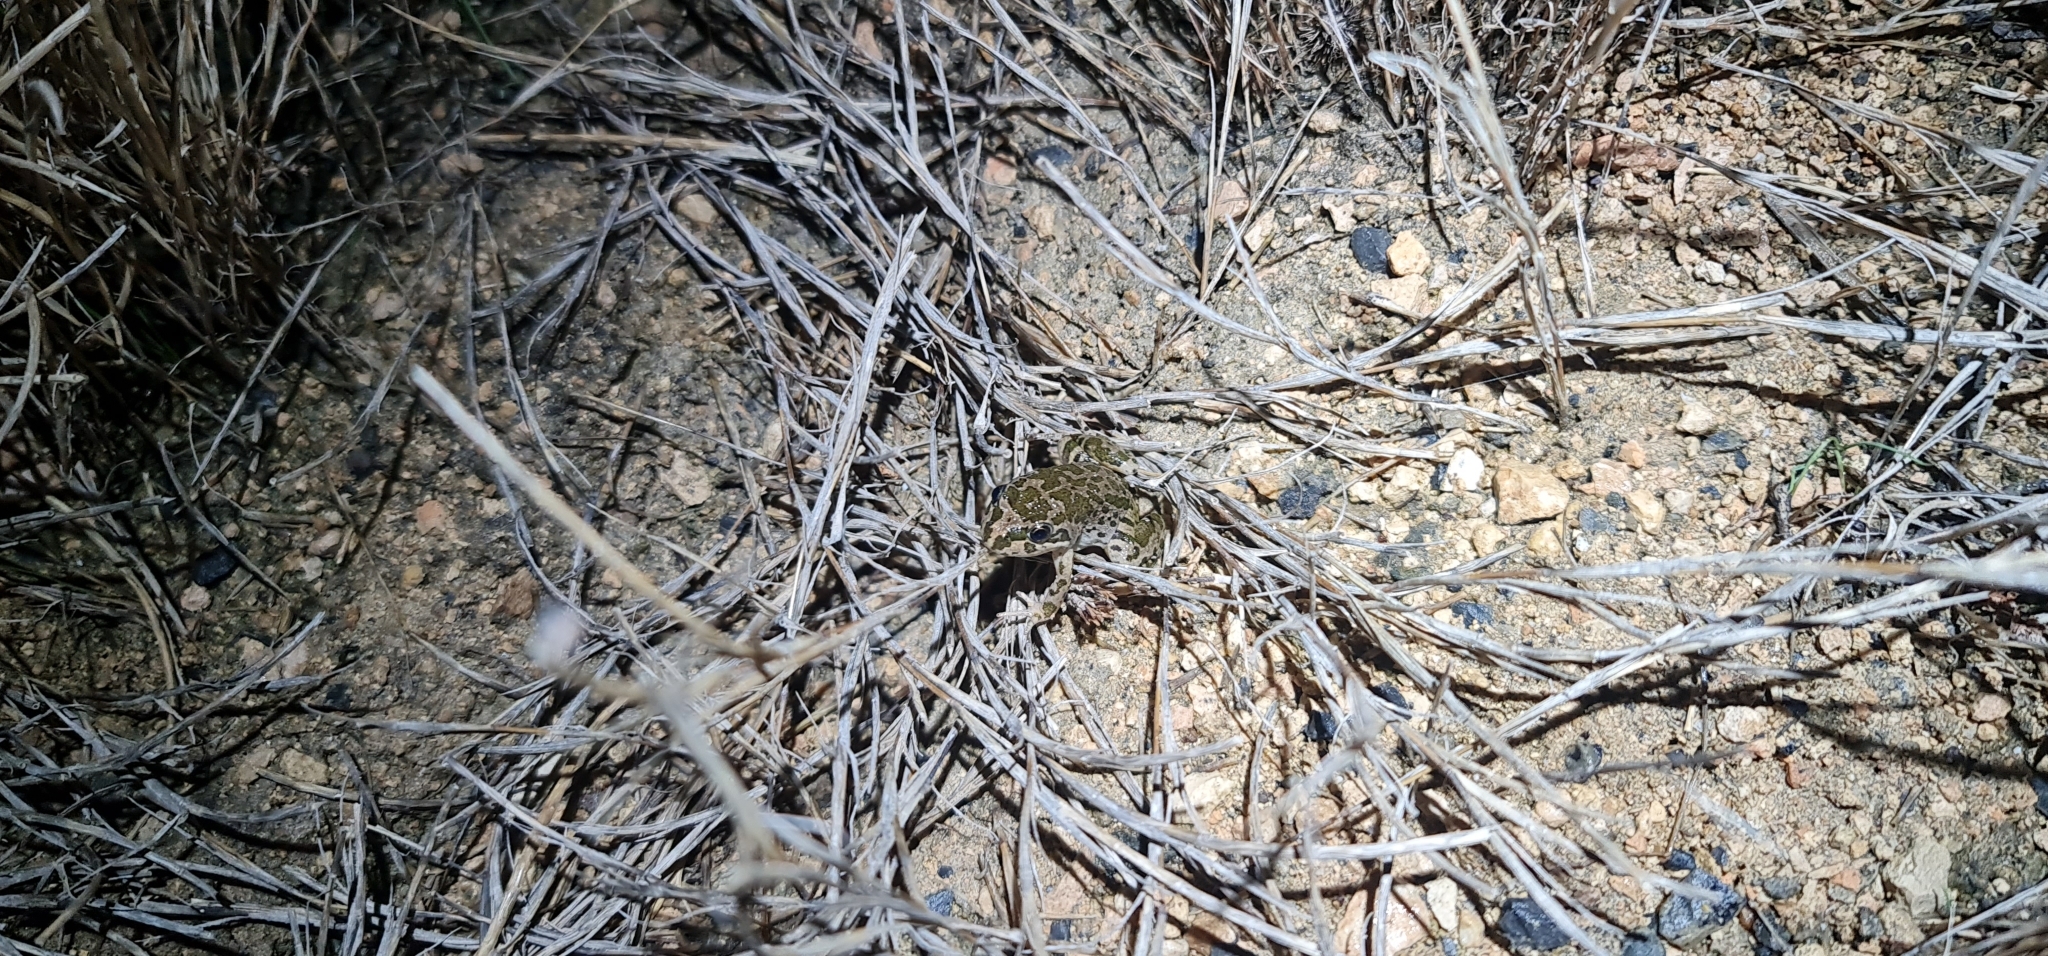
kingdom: Animalia
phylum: Chordata
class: Amphibia
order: Anura
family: Limnodynastidae
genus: Limnodynastes
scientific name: Limnodynastes tasmaniensis
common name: Spotted marsh frog
